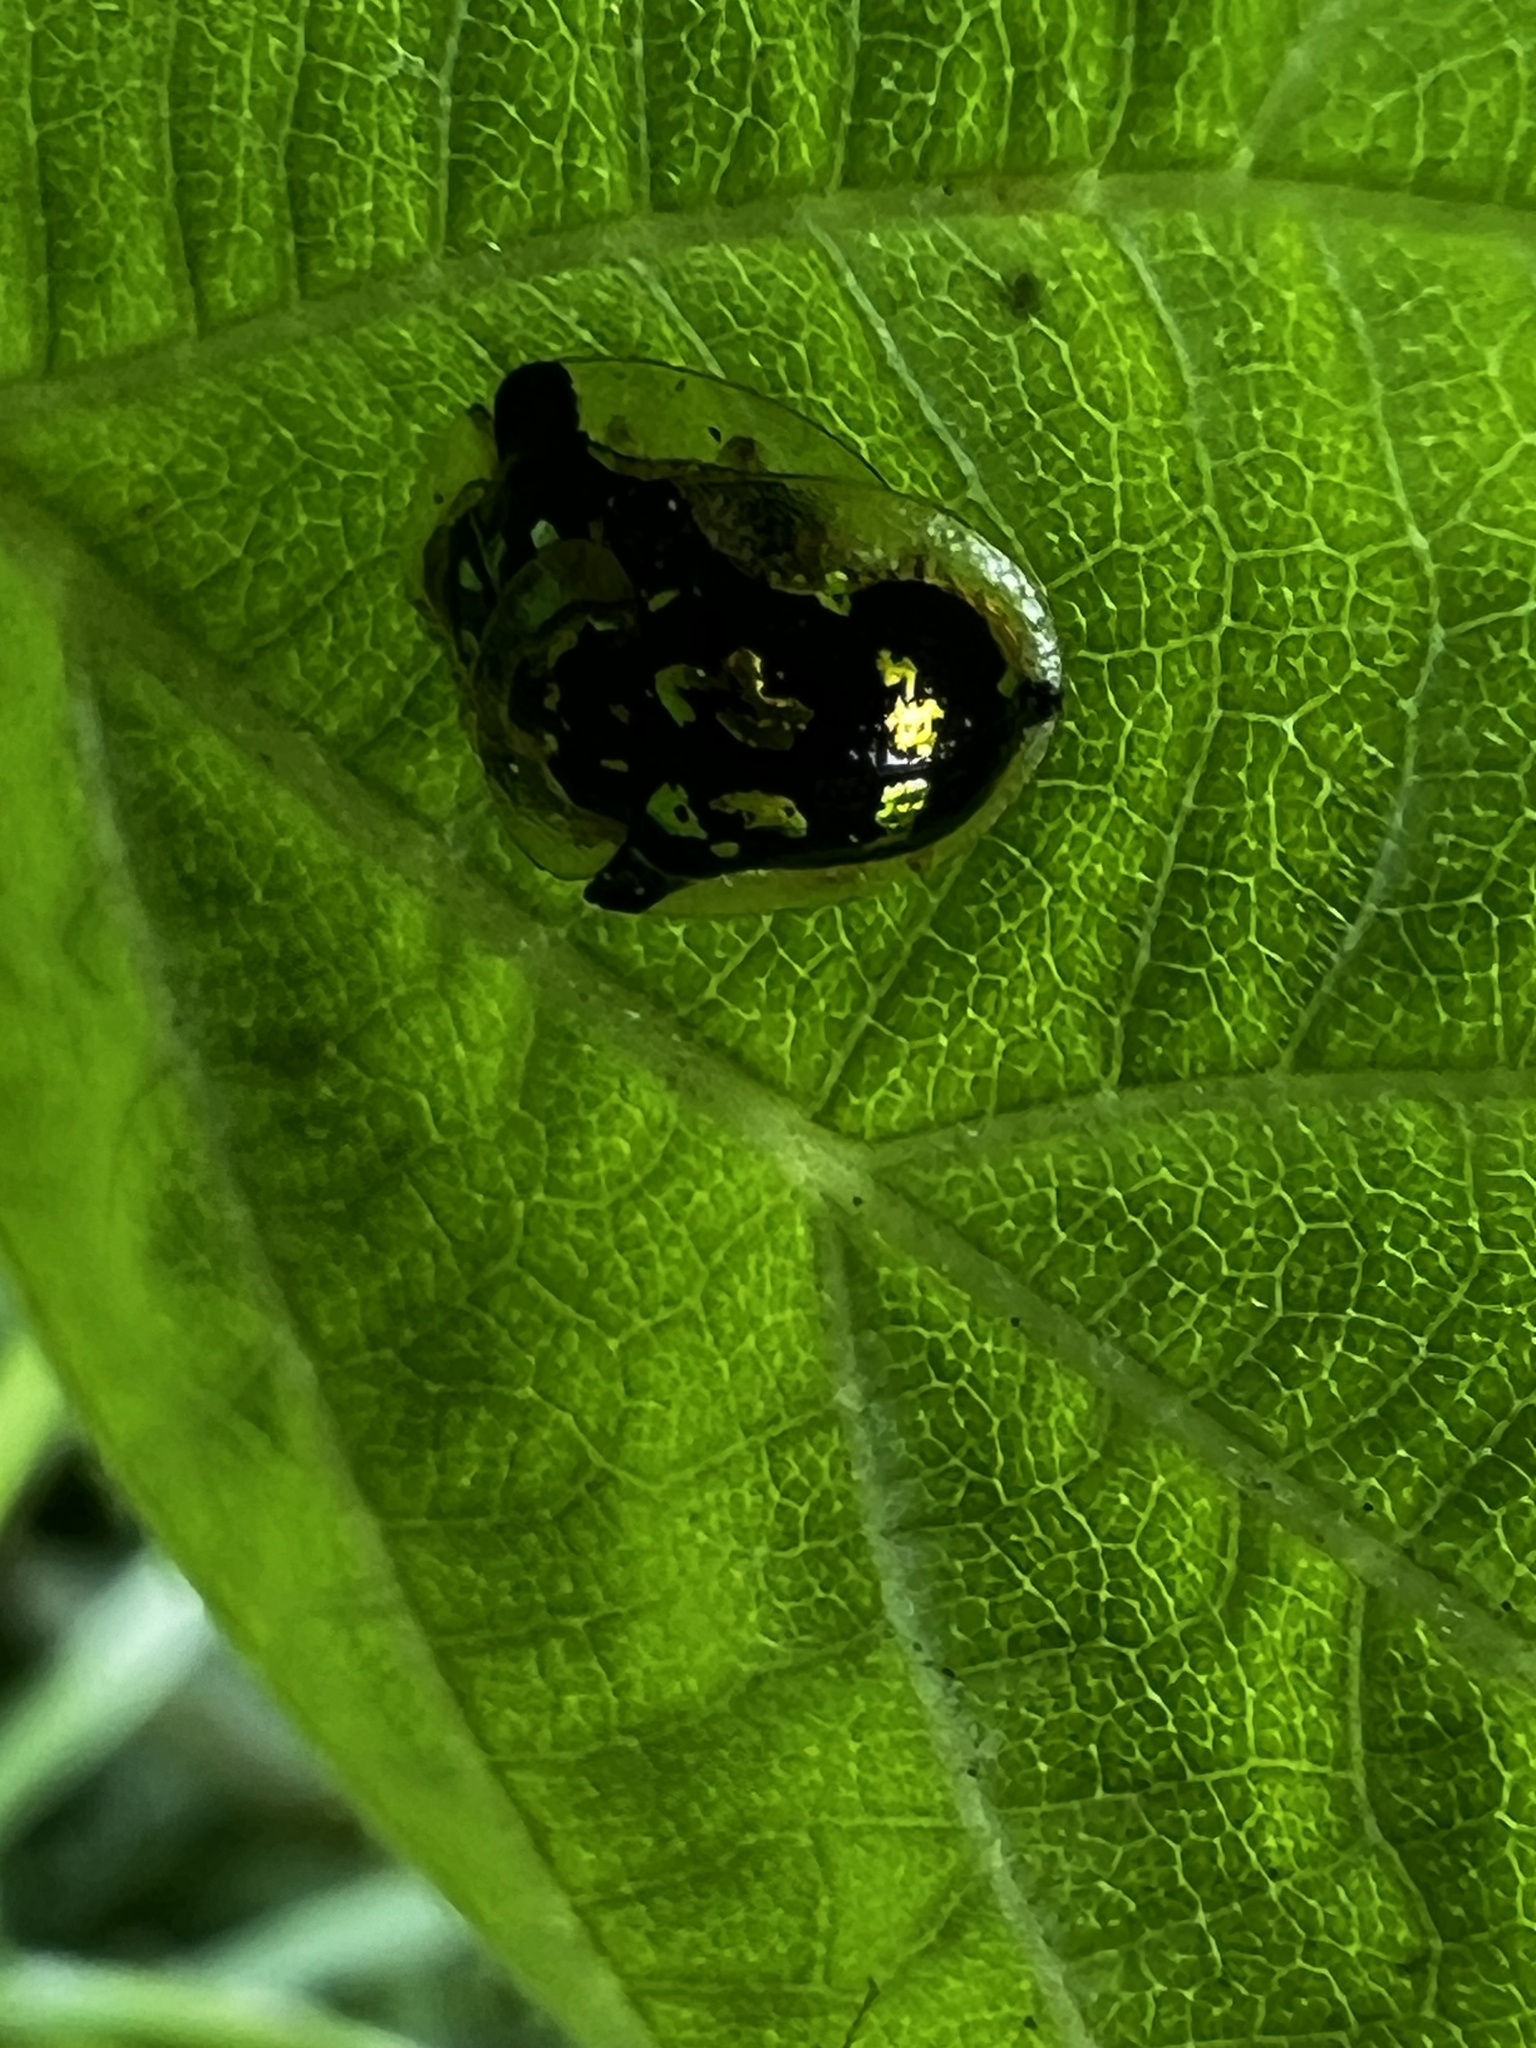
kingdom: Animalia
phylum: Arthropoda
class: Insecta
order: Coleoptera
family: Chrysomelidae
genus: Deloyala
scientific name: Deloyala guttata
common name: Mottled tortoise beetle
